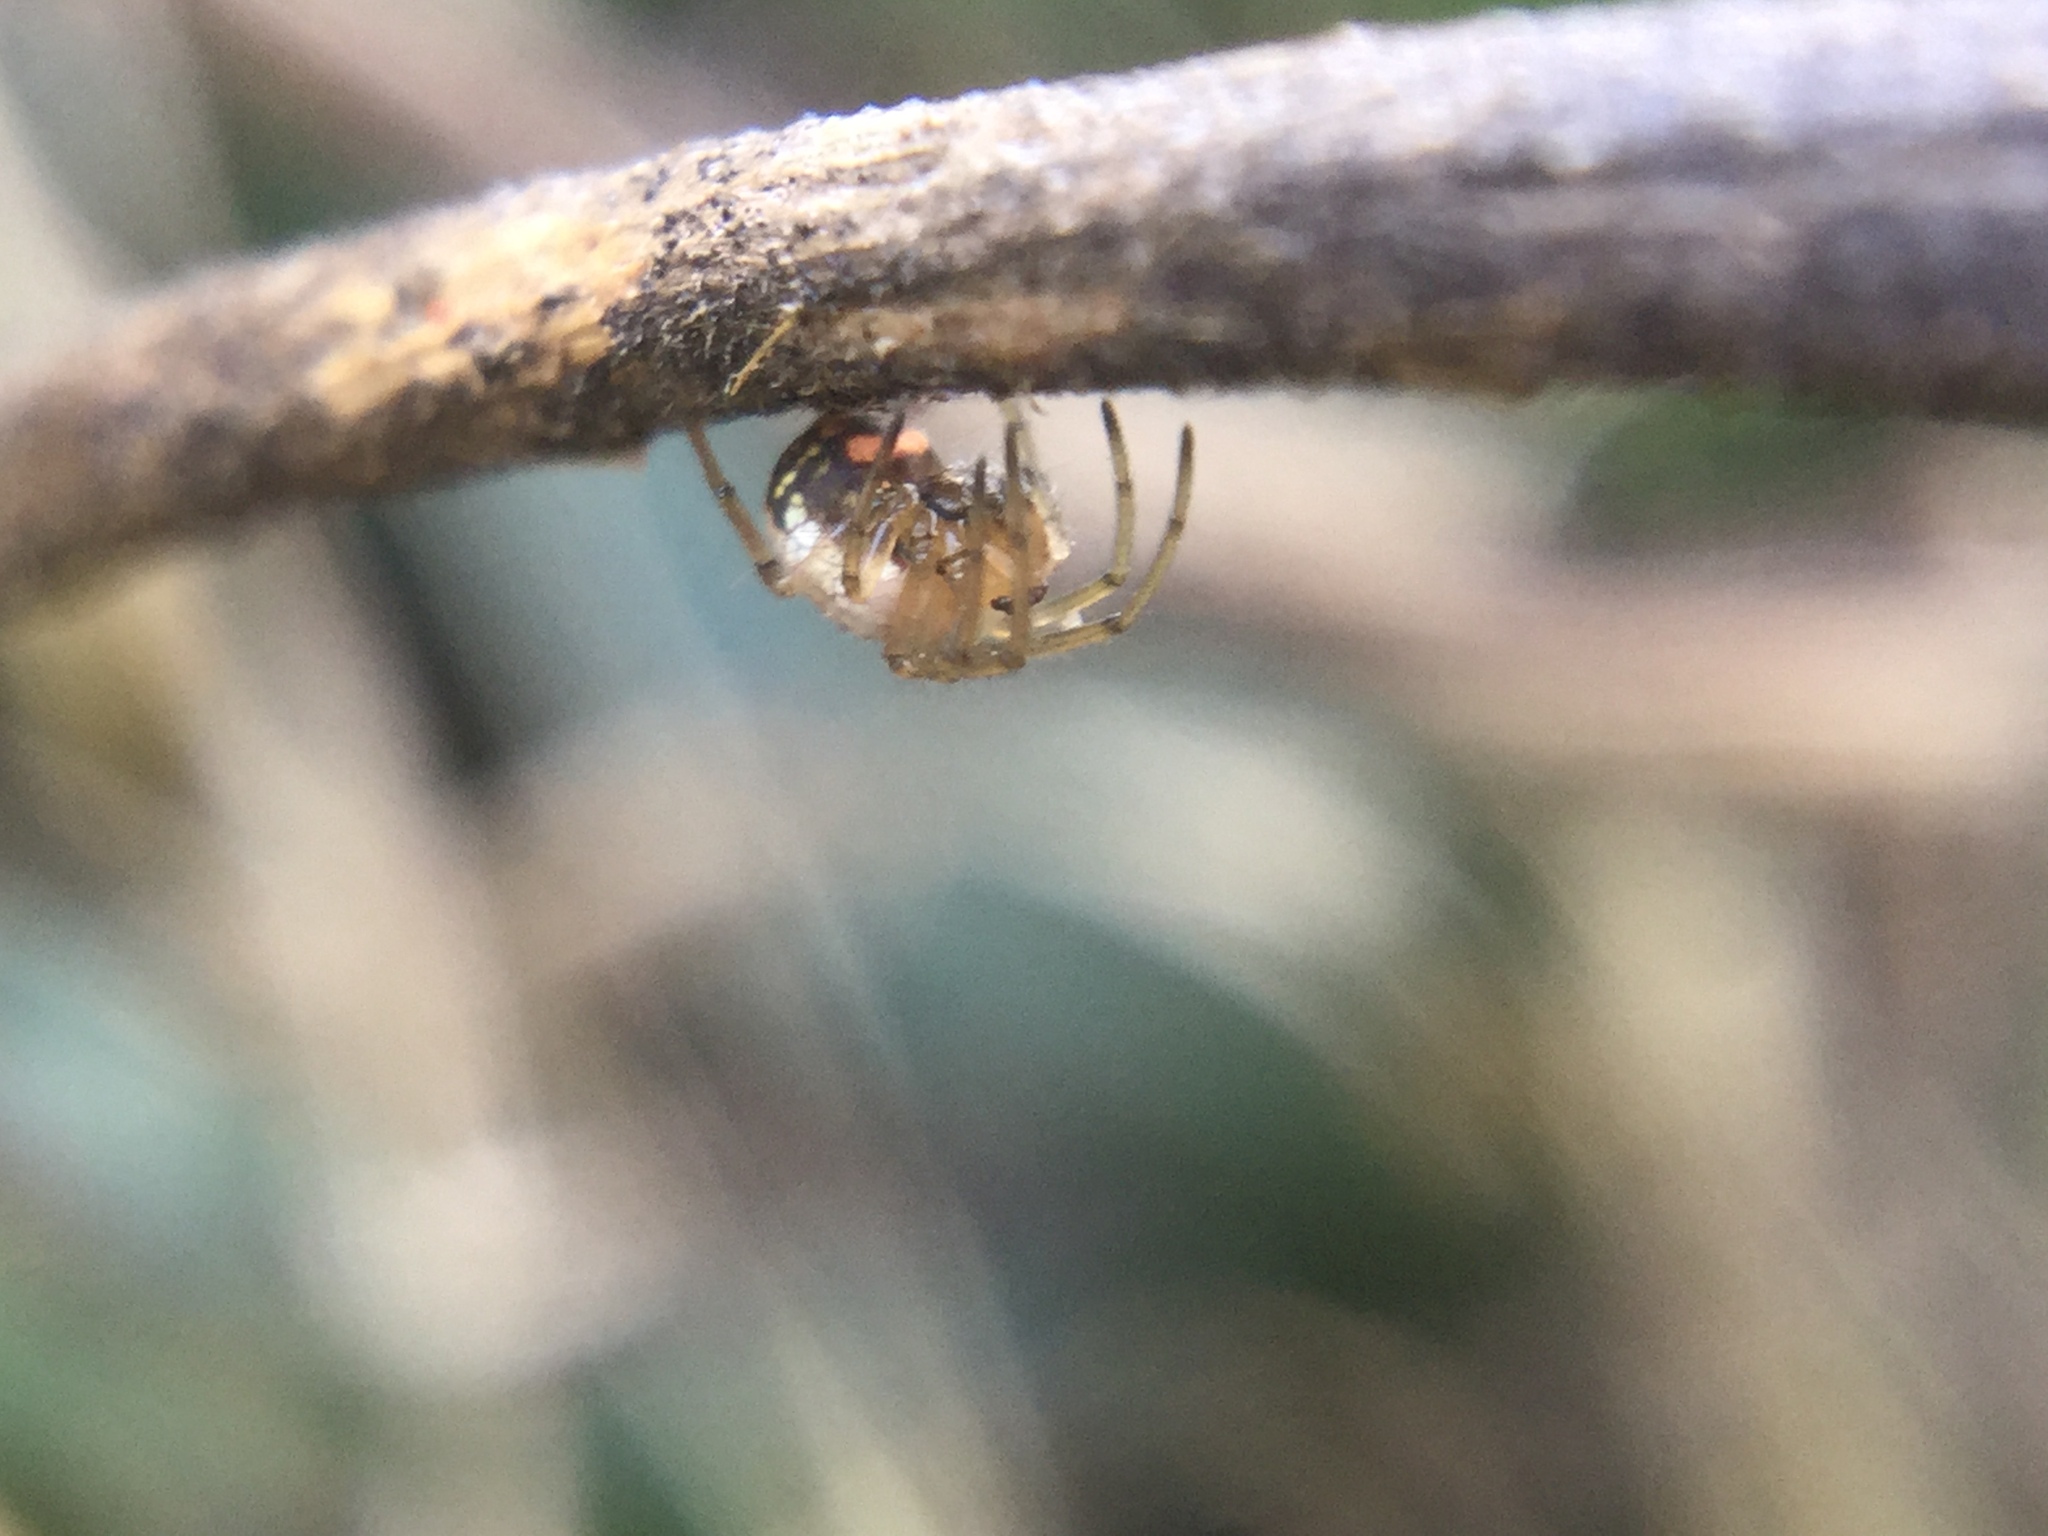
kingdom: Animalia
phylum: Arthropoda
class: Arachnida
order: Araneae
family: Tetragnathidae
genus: Leucauge
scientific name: Leucauge venusta
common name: Longjawed orb weavers
